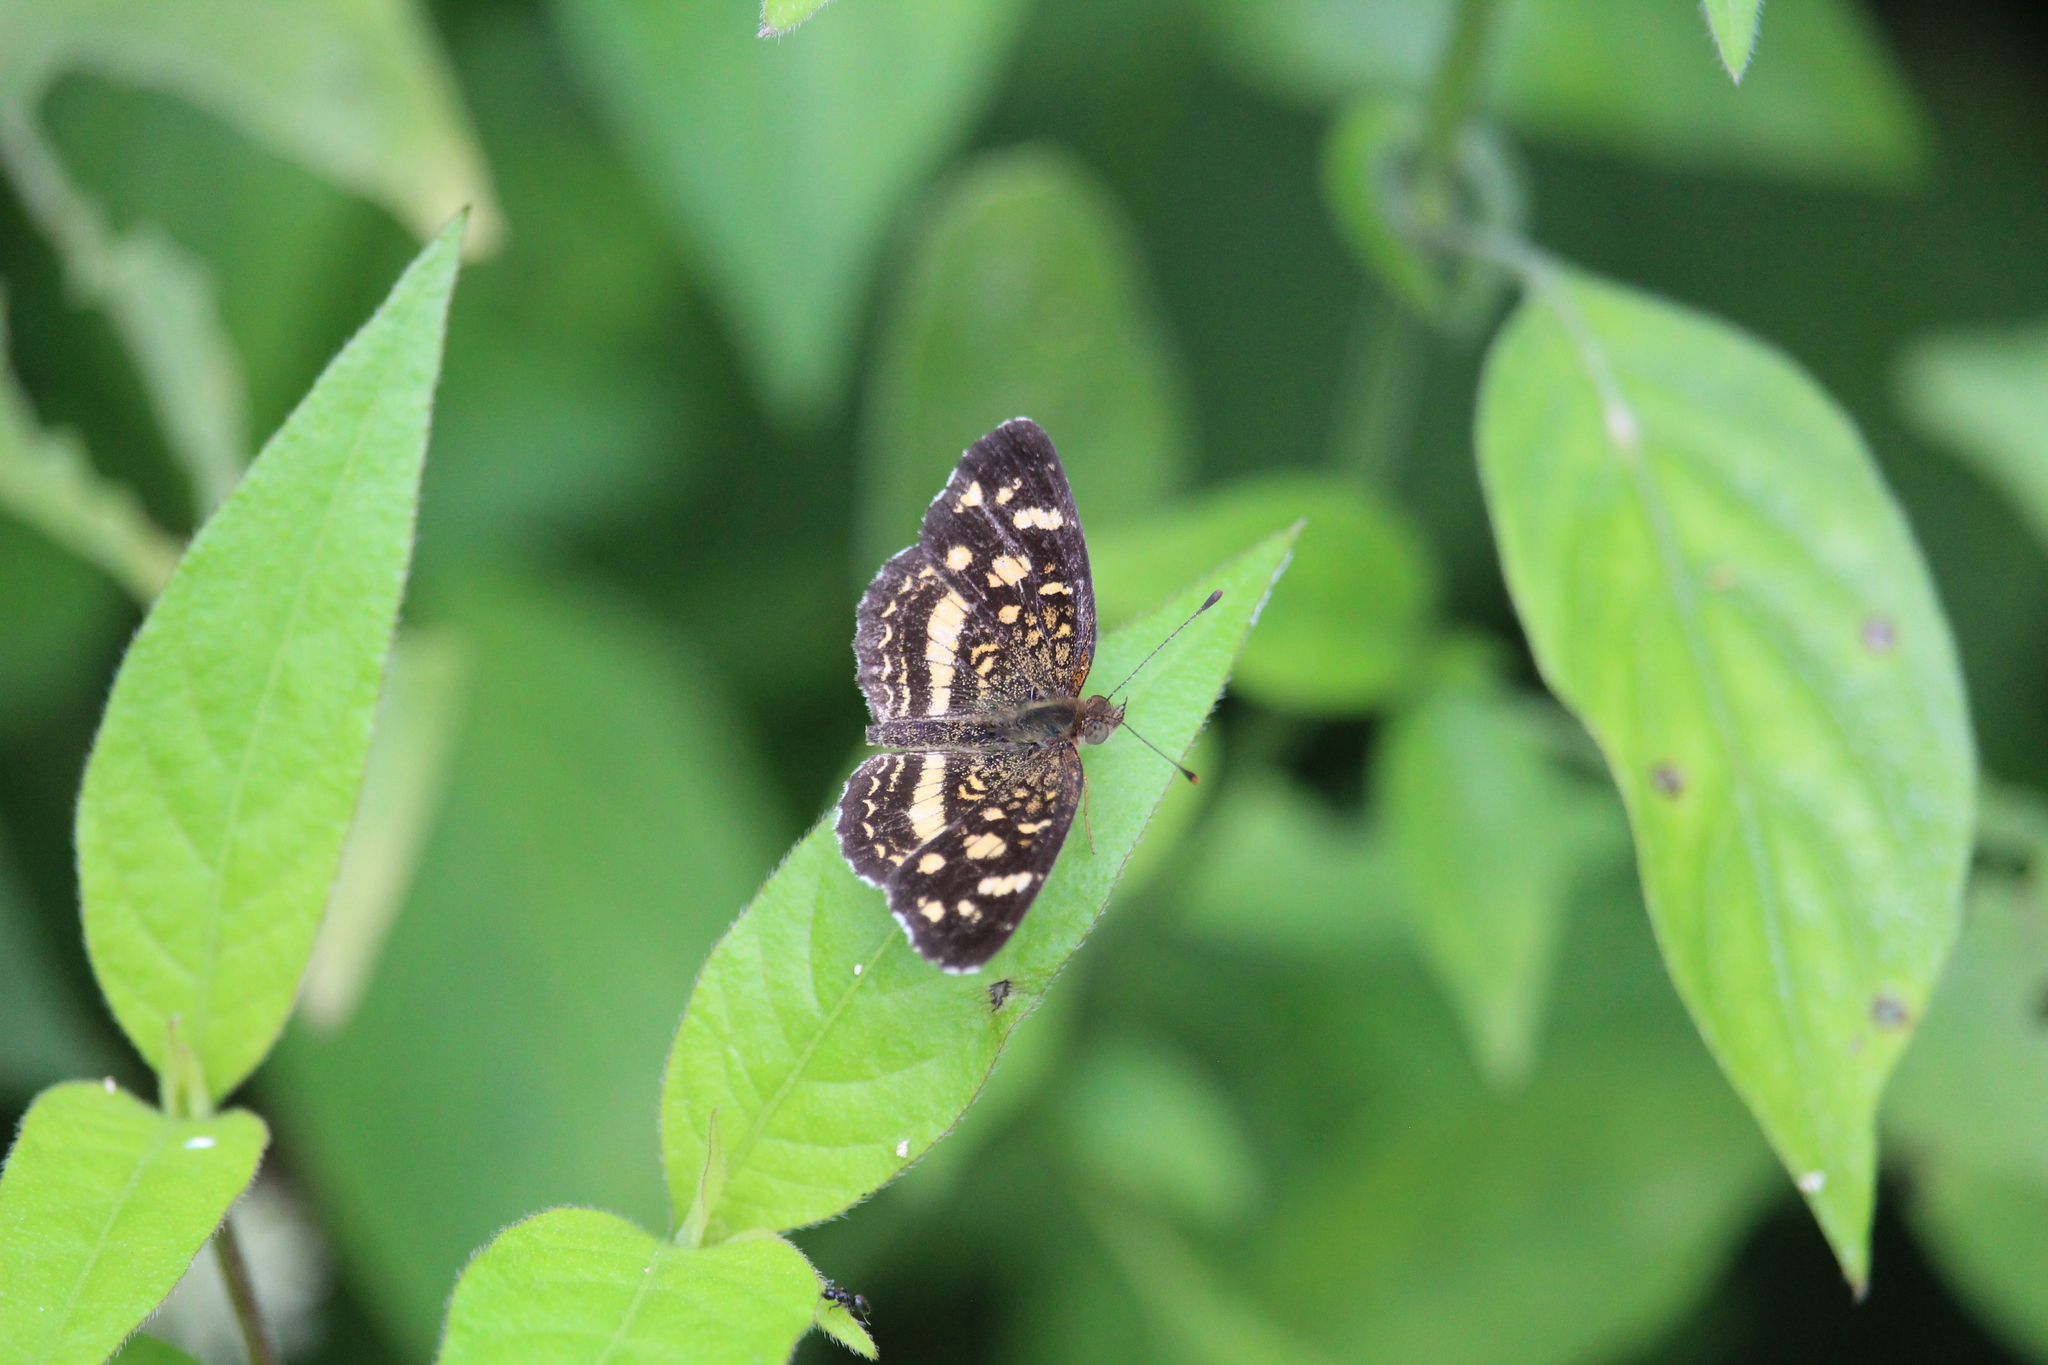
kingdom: Animalia
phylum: Arthropoda
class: Insecta
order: Lepidoptera
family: Nymphalidae
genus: Anthanassa
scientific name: Anthanassa tulcis
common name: Pale-banded crescent
